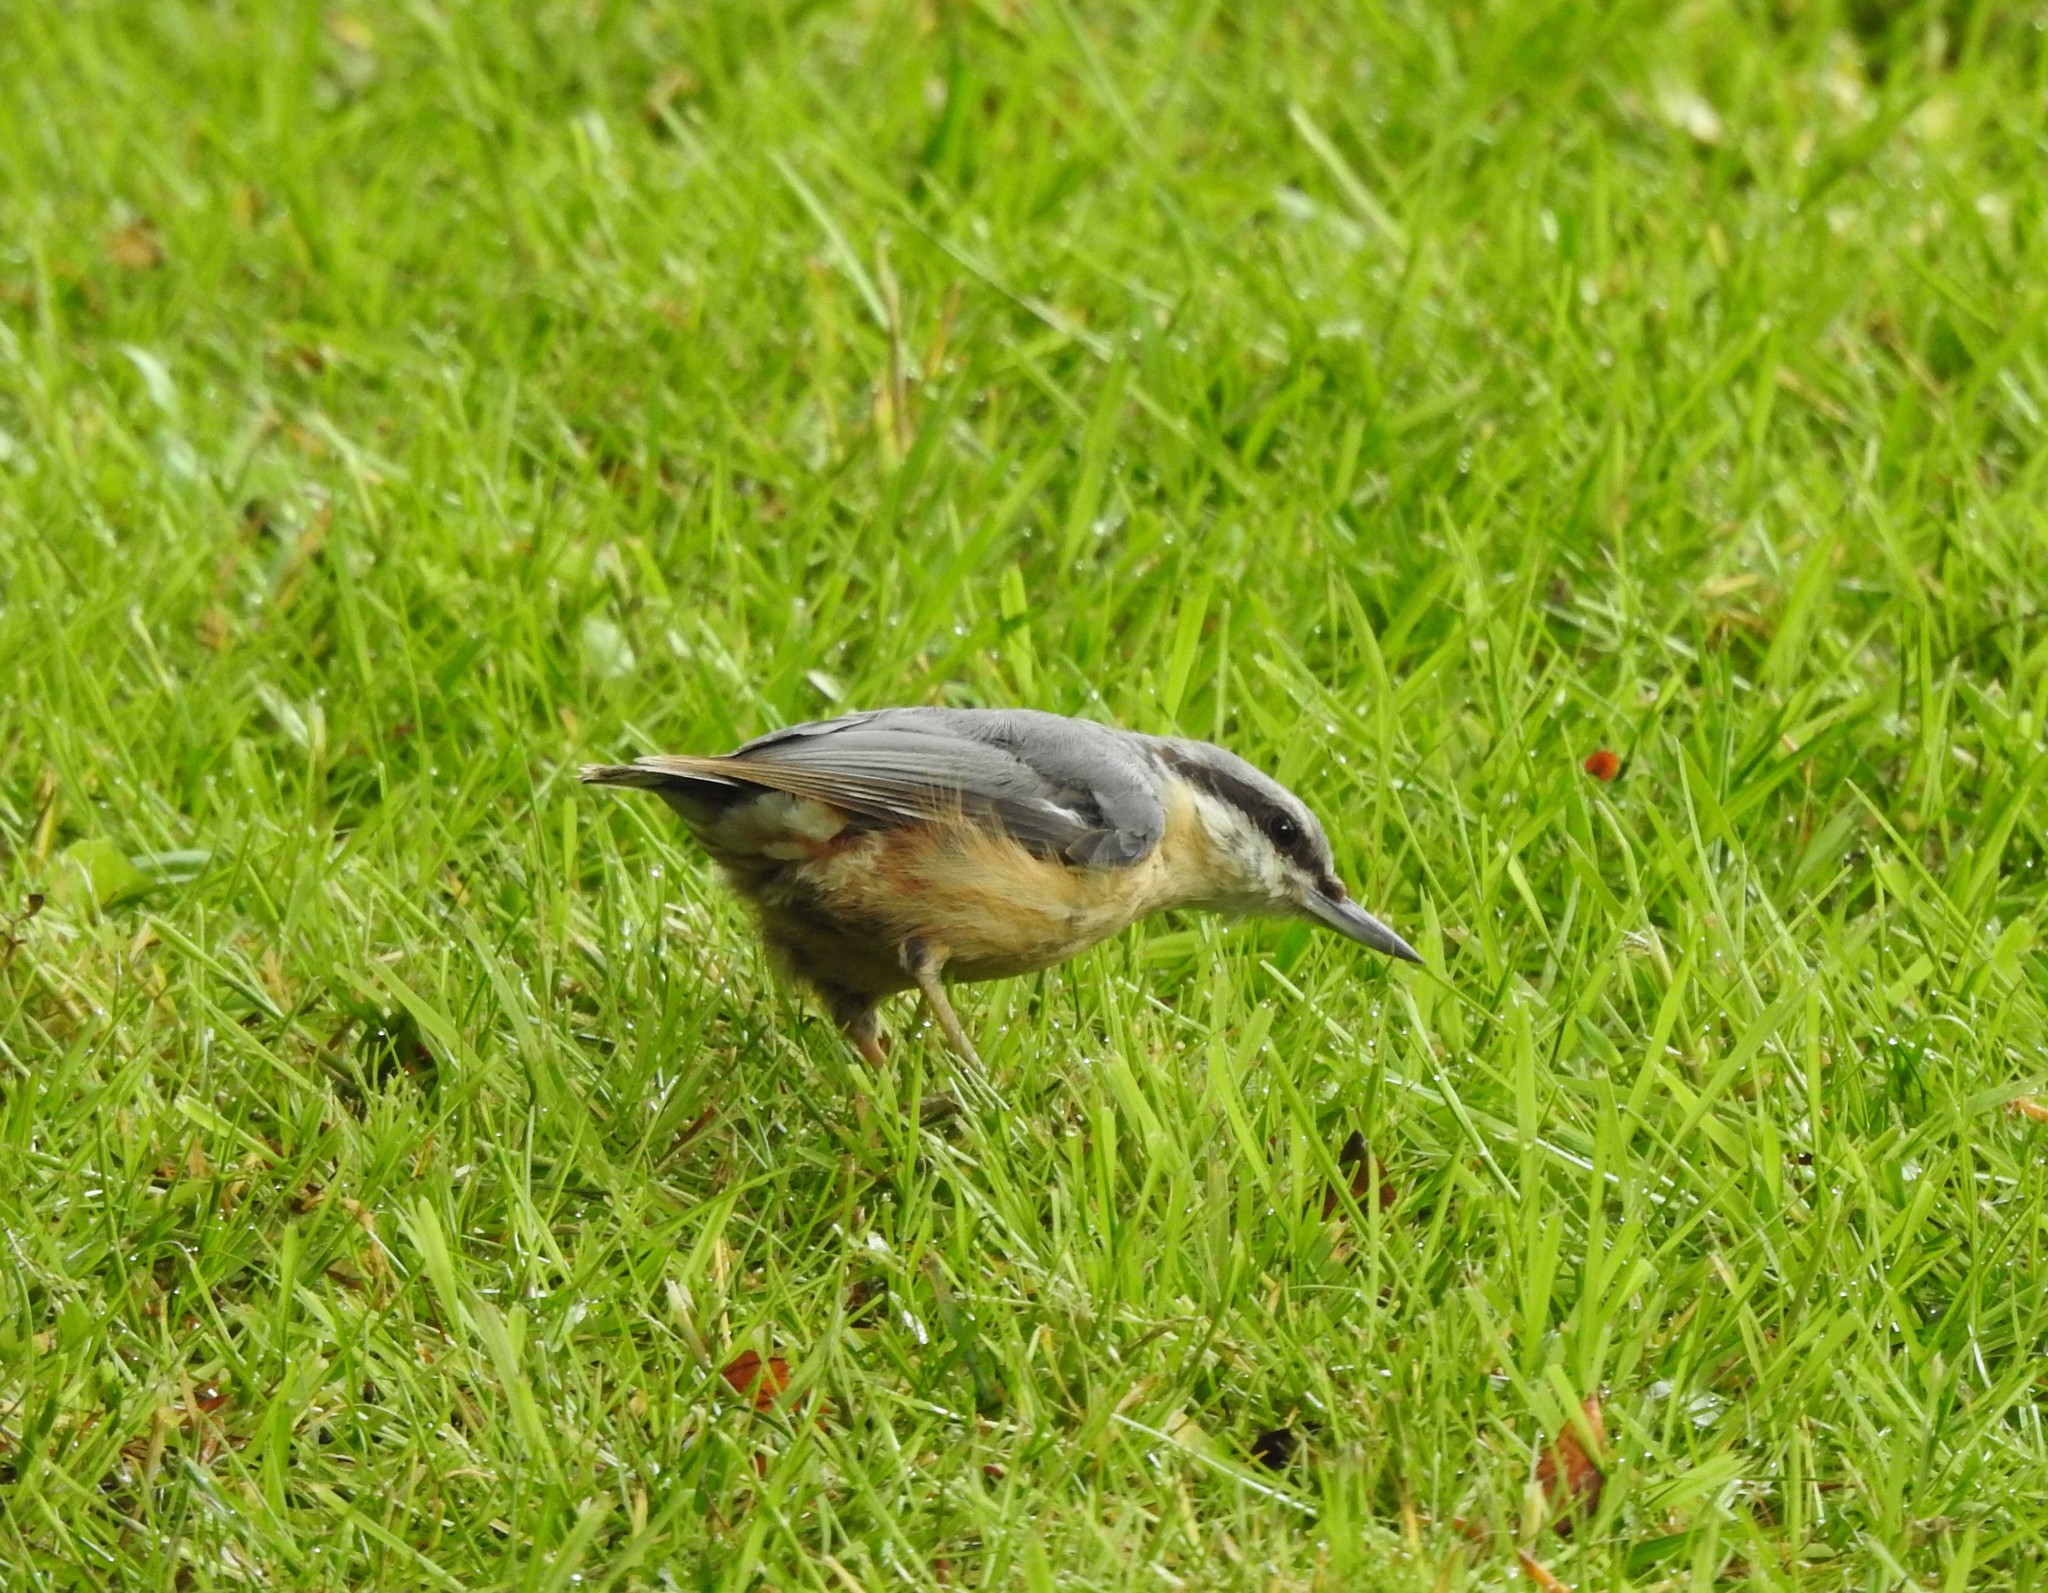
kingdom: Animalia
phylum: Chordata
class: Aves
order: Passeriformes
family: Sittidae
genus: Sitta
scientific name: Sitta europaea
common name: Eurasian nuthatch
